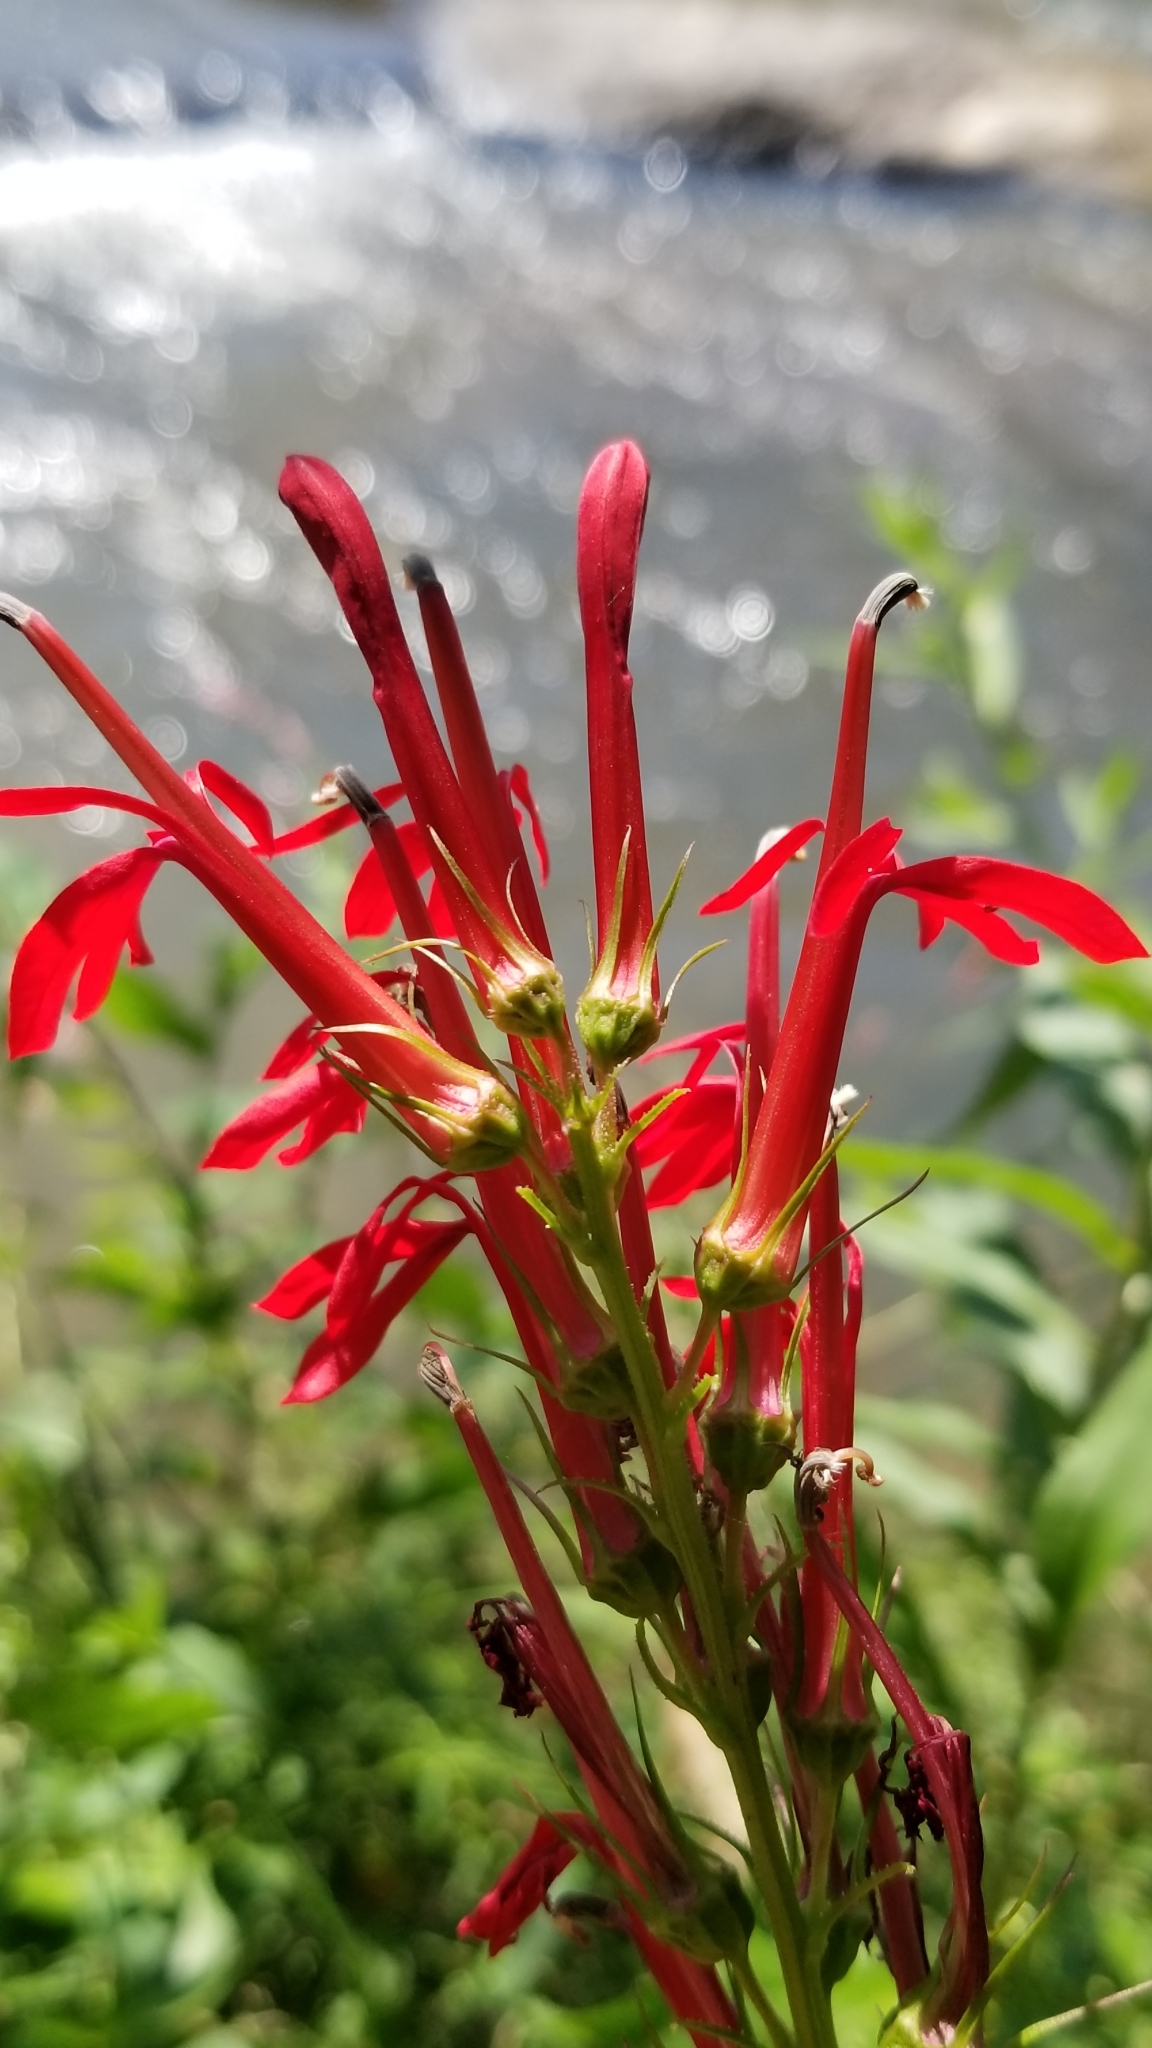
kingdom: Plantae
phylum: Tracheophyta
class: Magnoliopsida
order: Asterales
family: Campanulaceae
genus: Lobelia
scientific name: Lobelia cardinalis
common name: Cardinal flower
